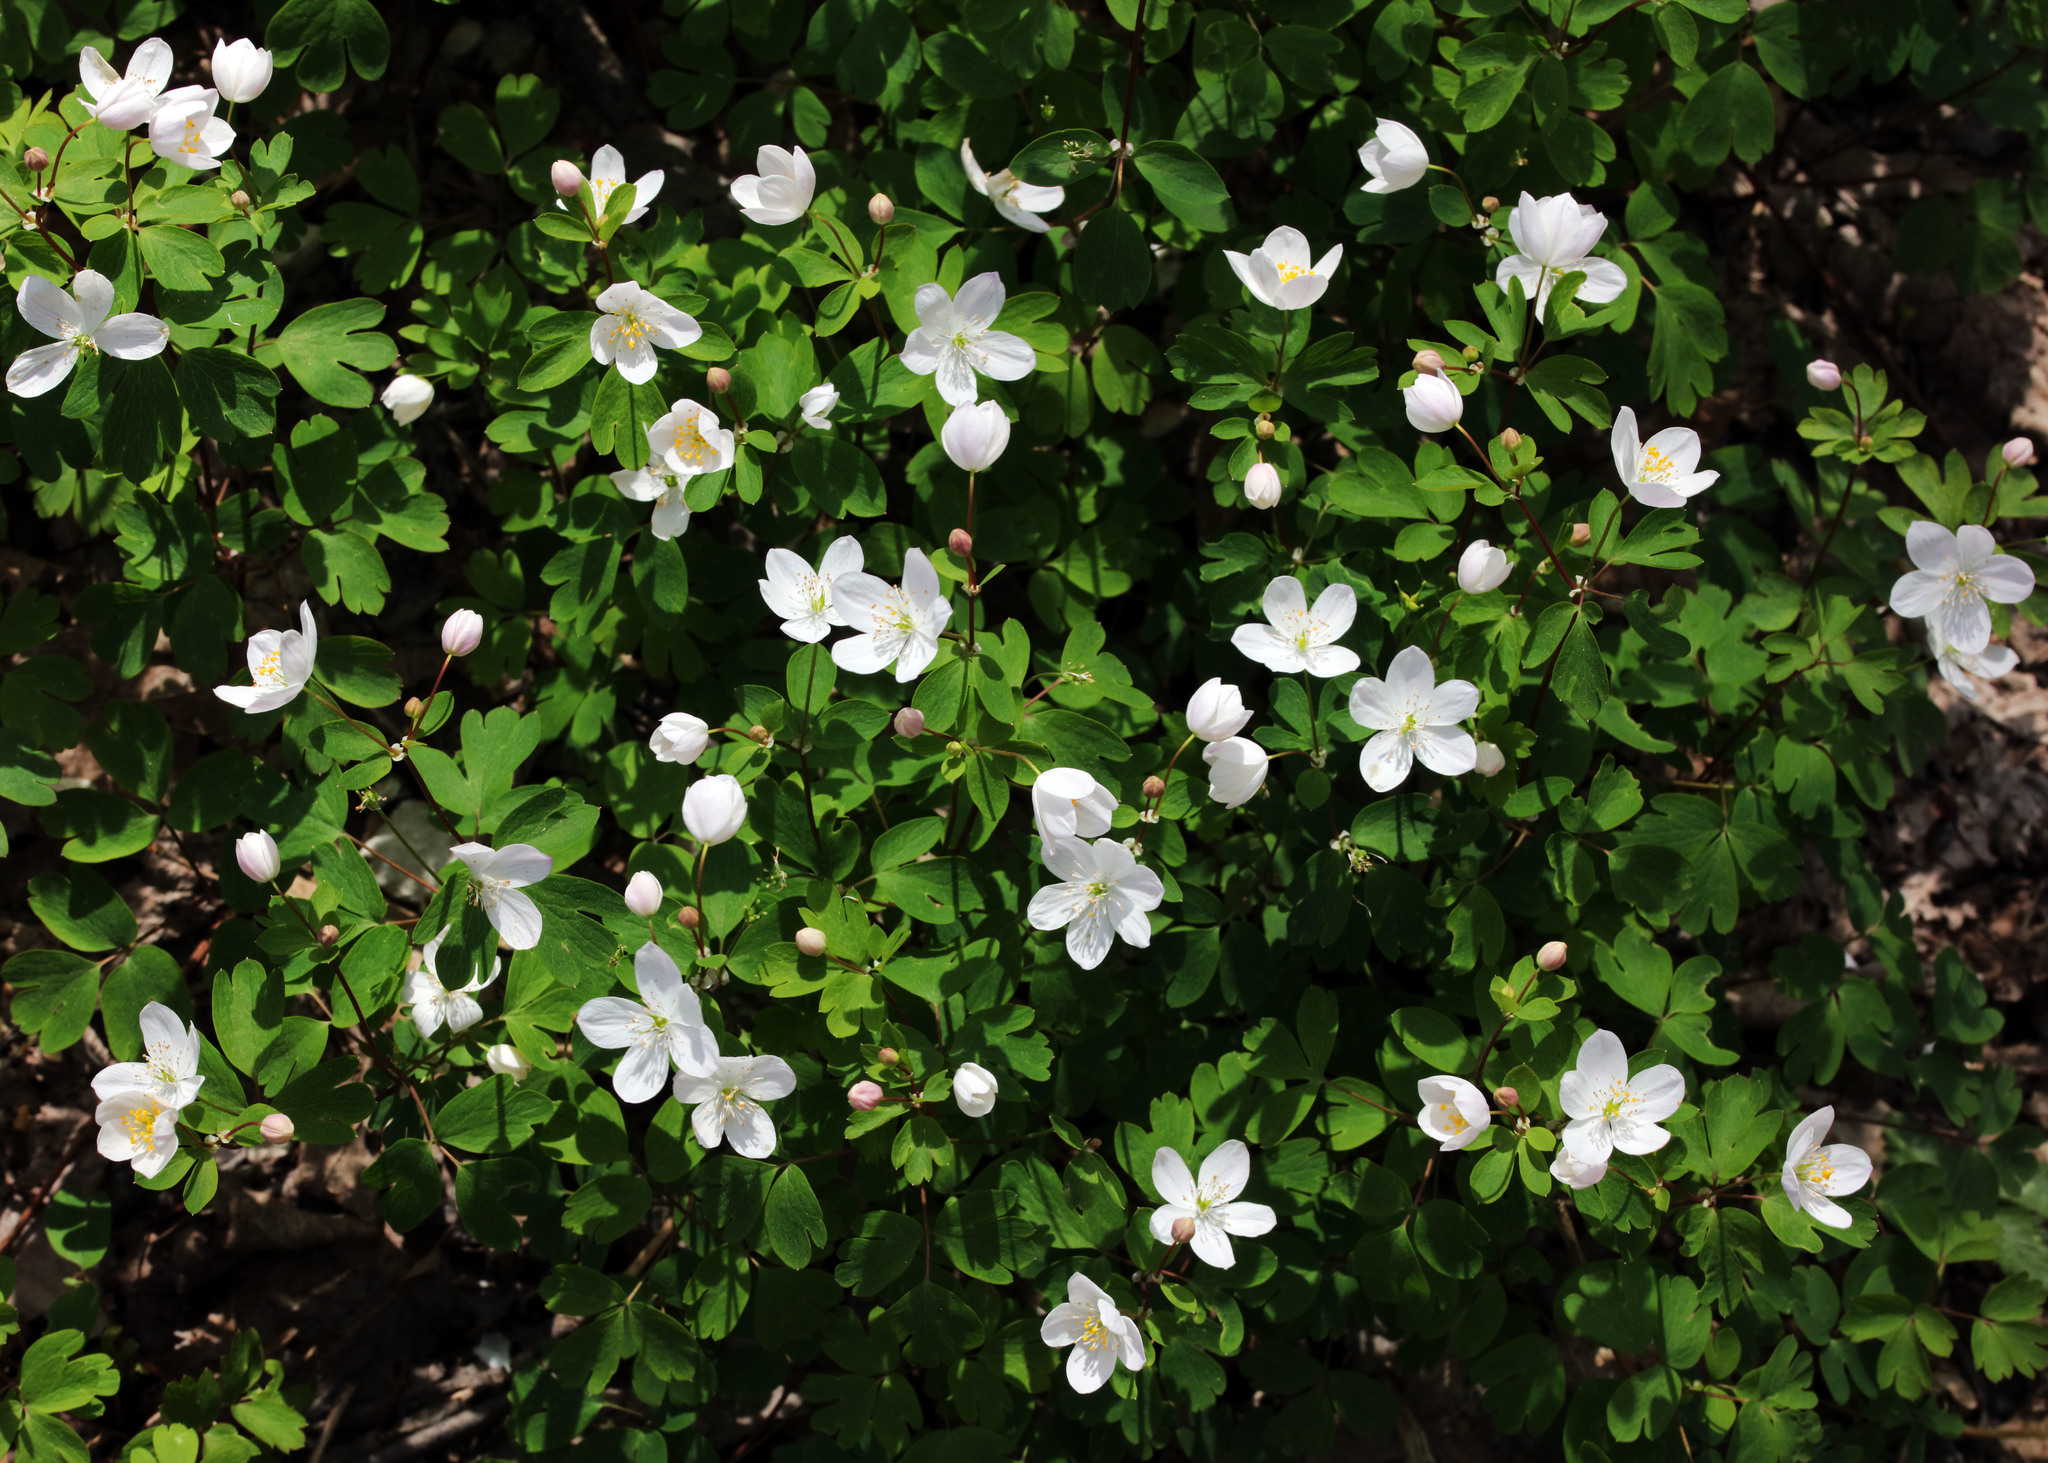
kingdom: Plantae
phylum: Tracheophyta
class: Magnoliopsida
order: Ranunculales
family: Ranunculaceae
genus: Enemion
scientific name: Enemion biternatum
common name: Eastern false rue-anemone
